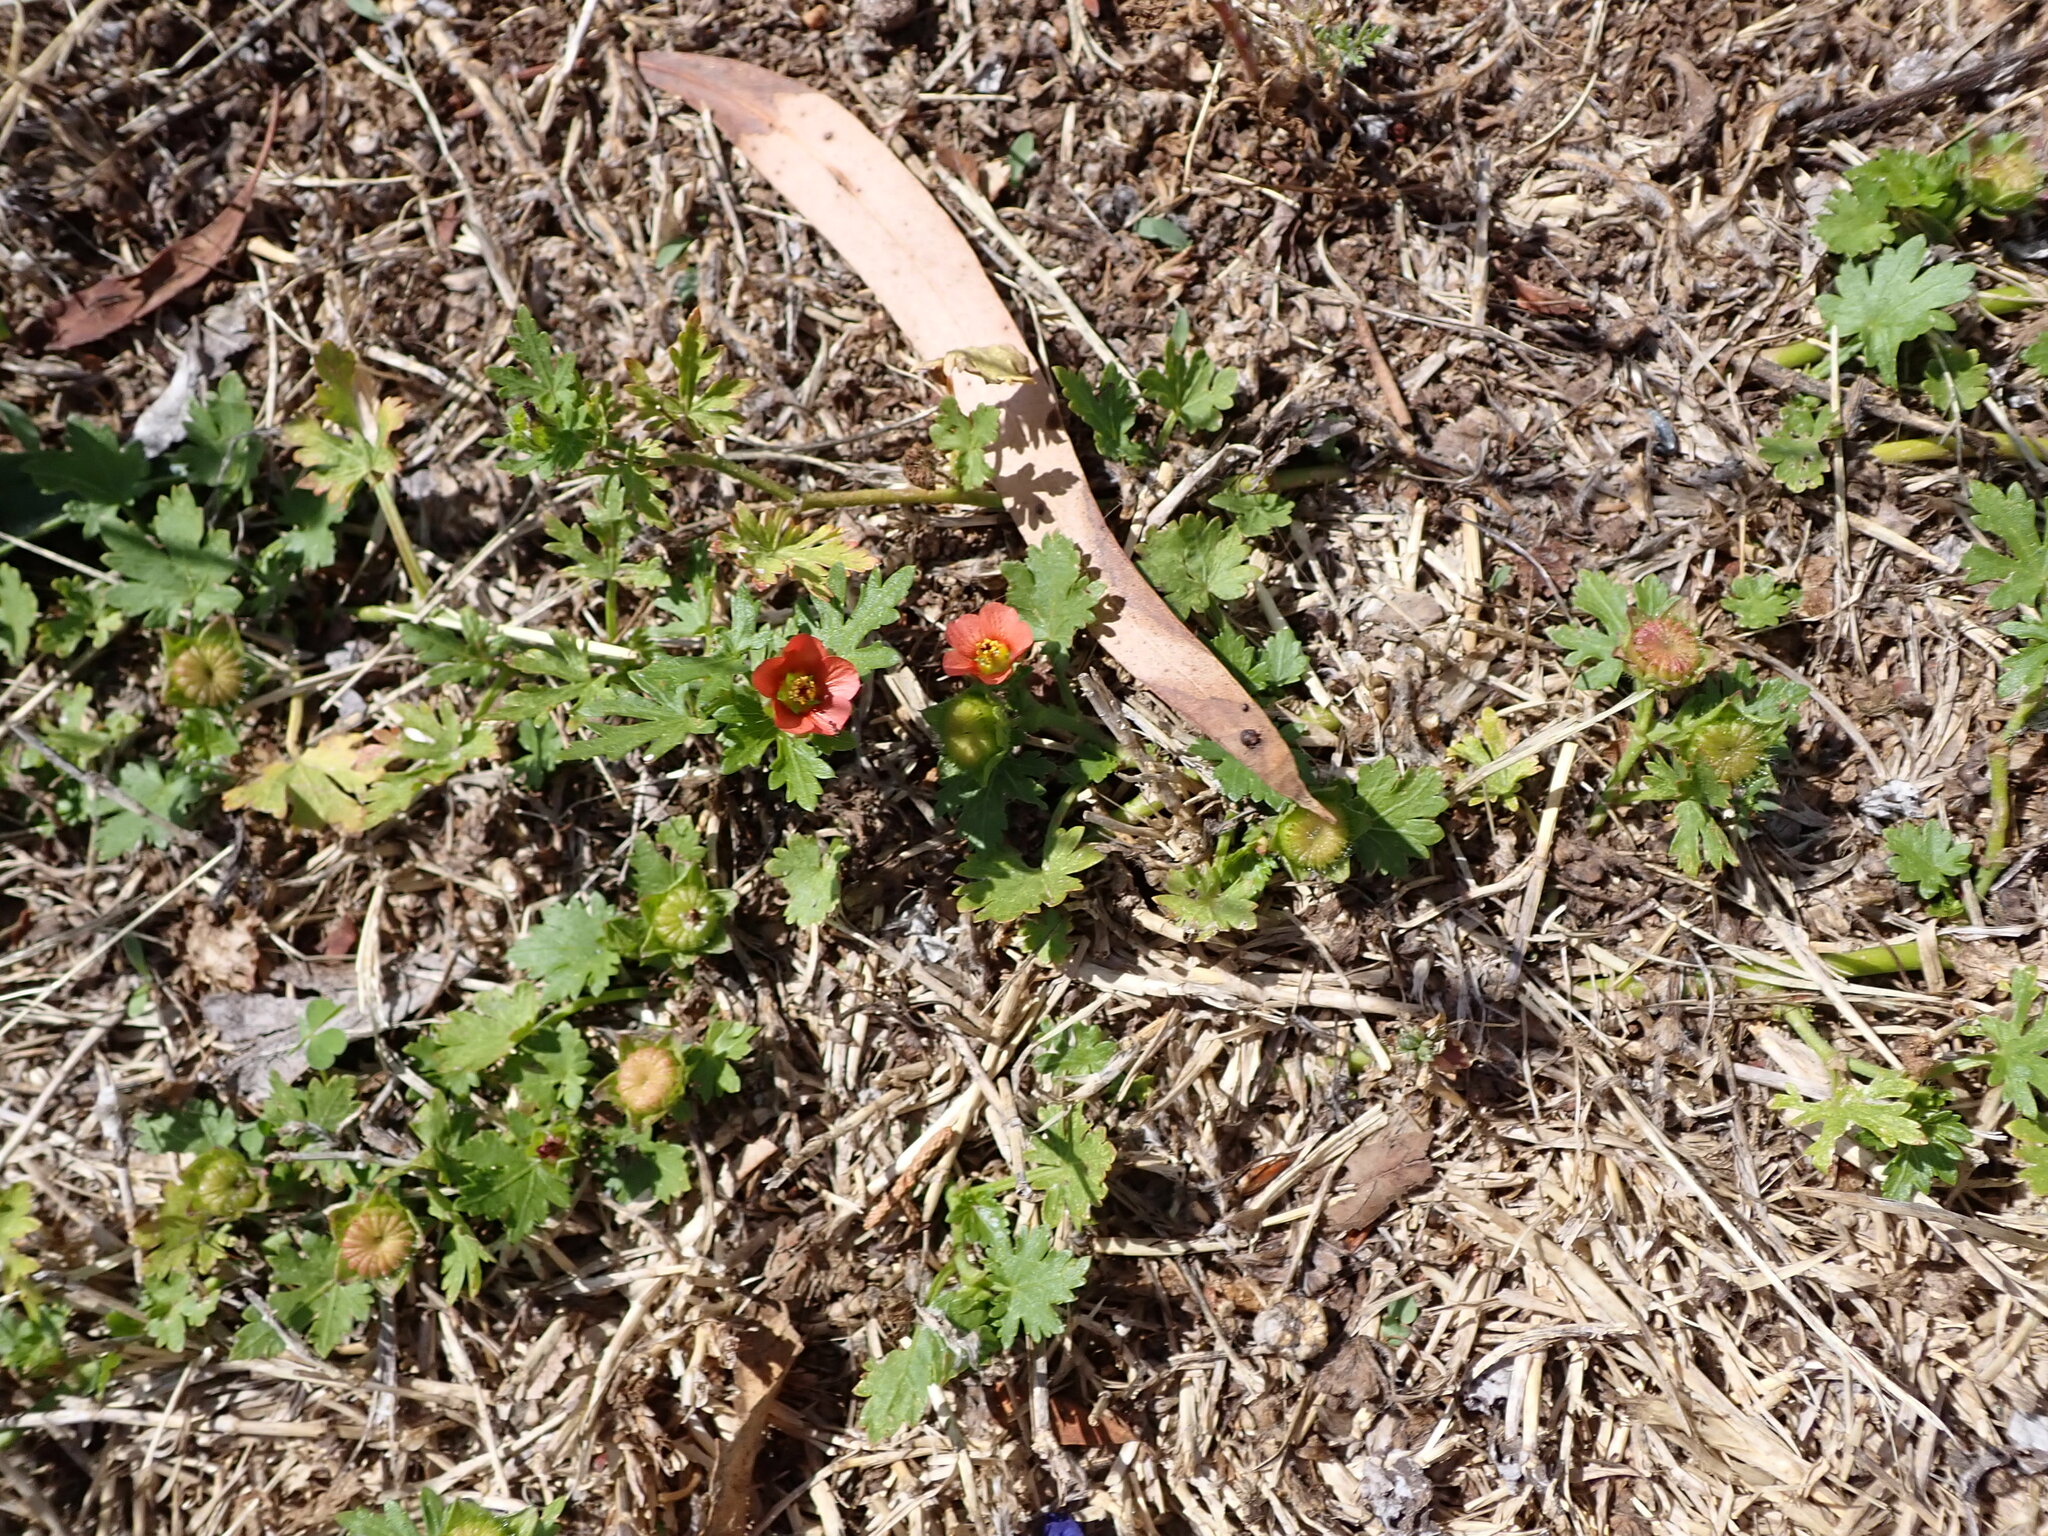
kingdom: Plantae
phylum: Tracheophyta
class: Magnoliopsida
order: Malvales
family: Malvaceae
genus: Modiola
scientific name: Modiola caroliniana
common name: Carolina bristlemallow
